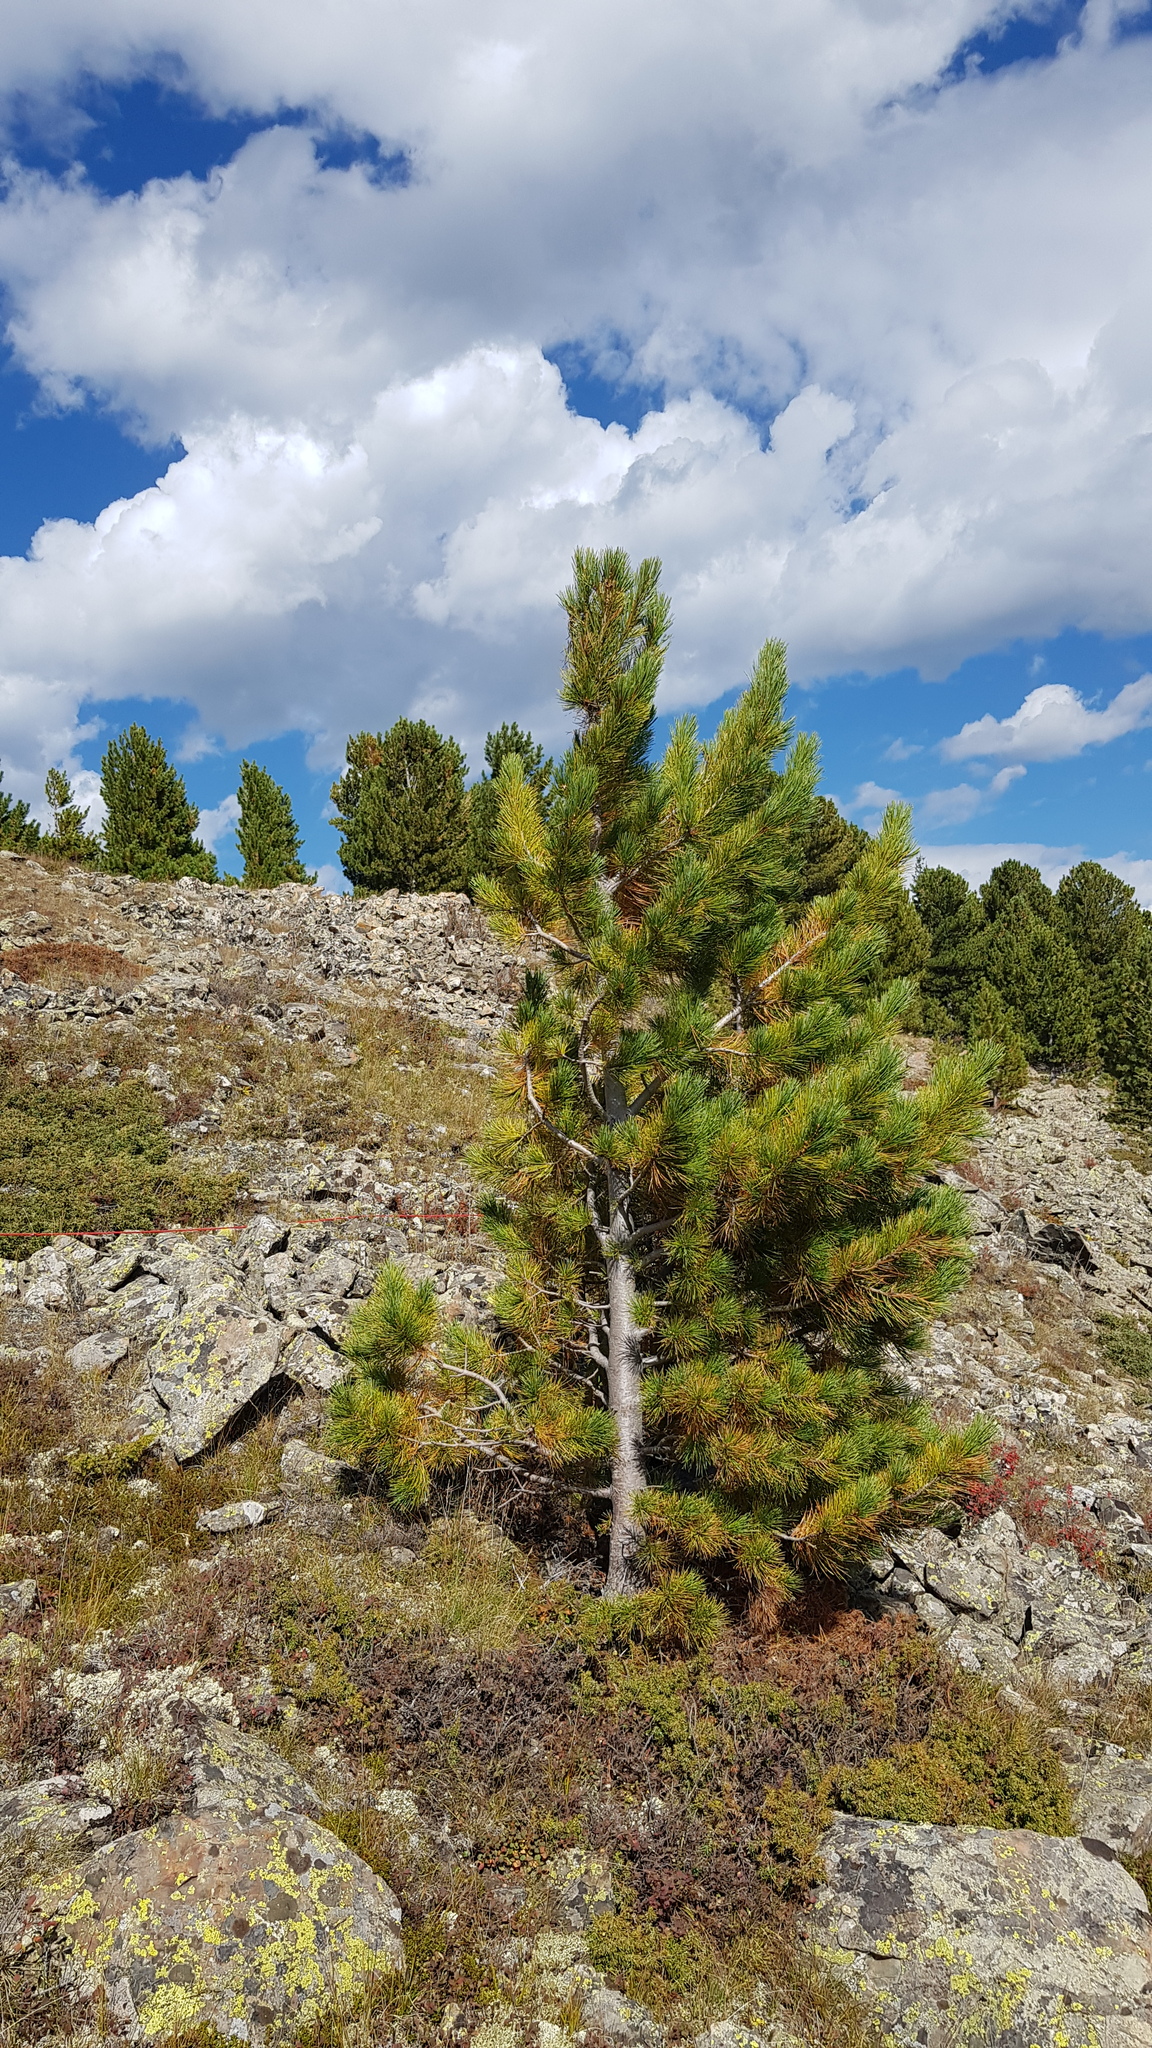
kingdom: Plantae
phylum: Tracheophyta
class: Pinopsida
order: Pinales
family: Pinaceae
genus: Pinus
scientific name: Pinus sibirica
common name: Siberian pine
